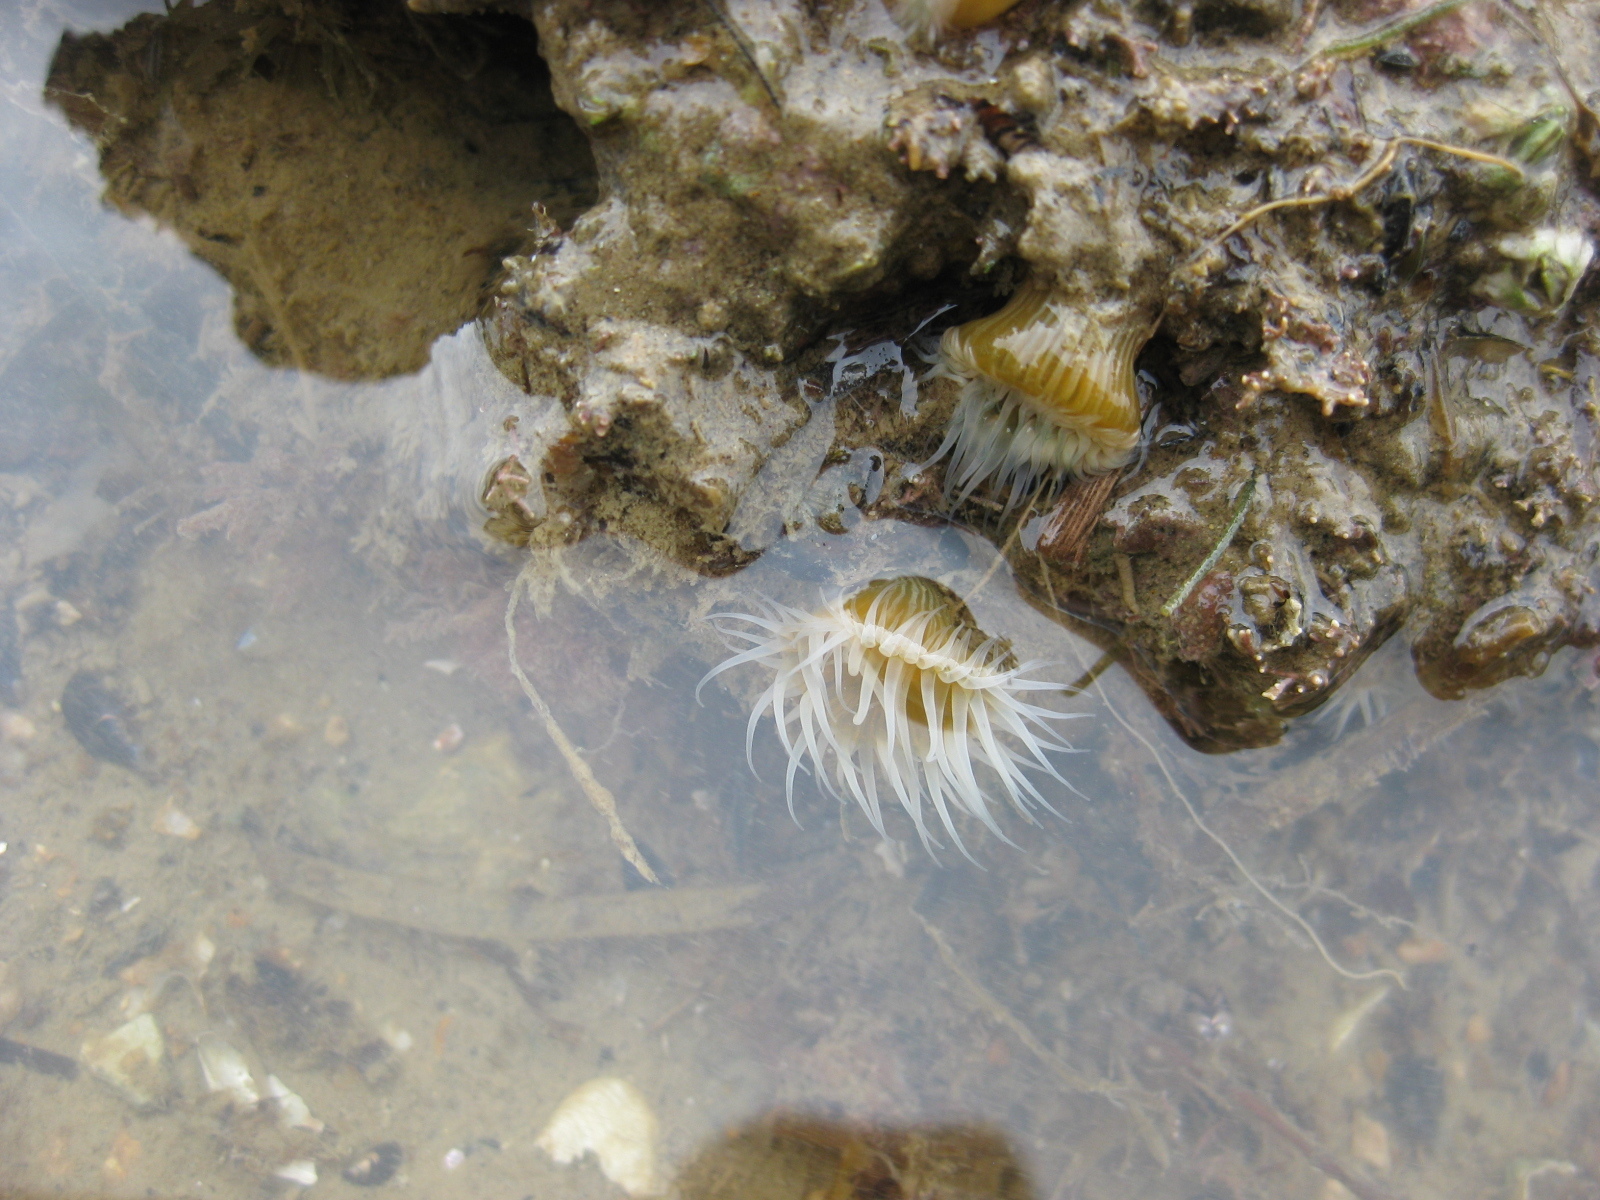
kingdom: Animalia
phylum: Cnidaria
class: Anthozoa
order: Actiniaria
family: Sagartiidae
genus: Anthothoe
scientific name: Anthothoe albocincta
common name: Orange striped anemone
